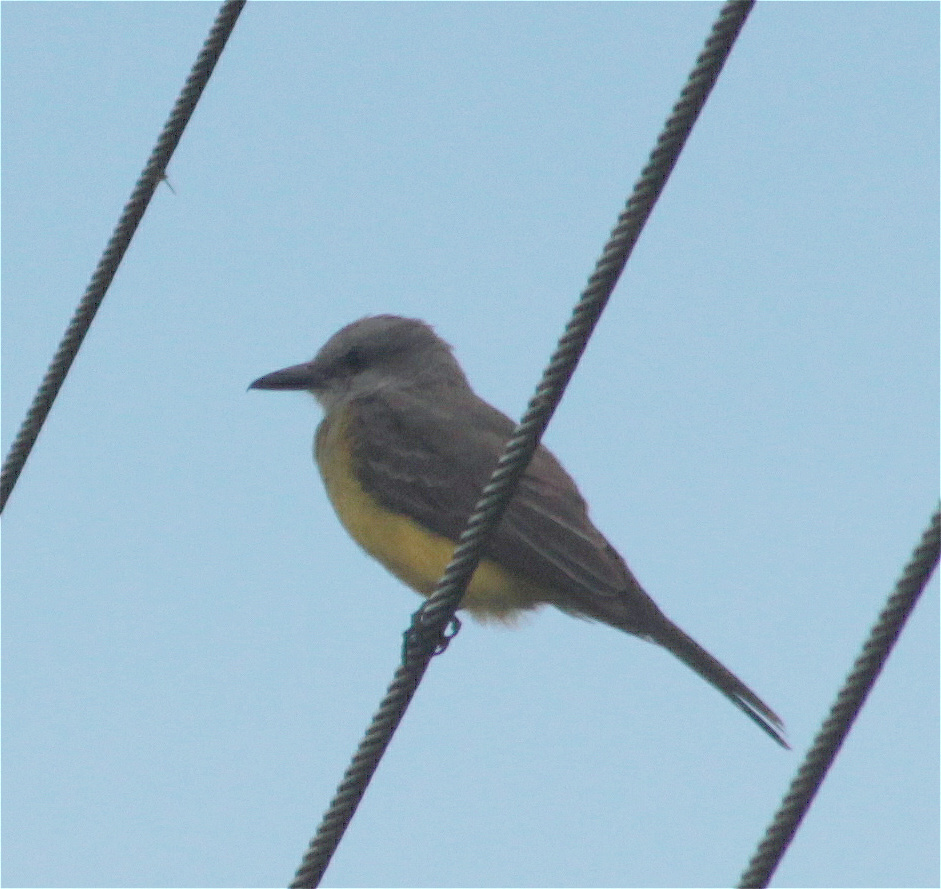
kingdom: Animalia
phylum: Chordata
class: Aves
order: Passeriformes
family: Tyrannidae
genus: Tyrannus
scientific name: Tyrannus melancholicus
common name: Tropical kingbird
